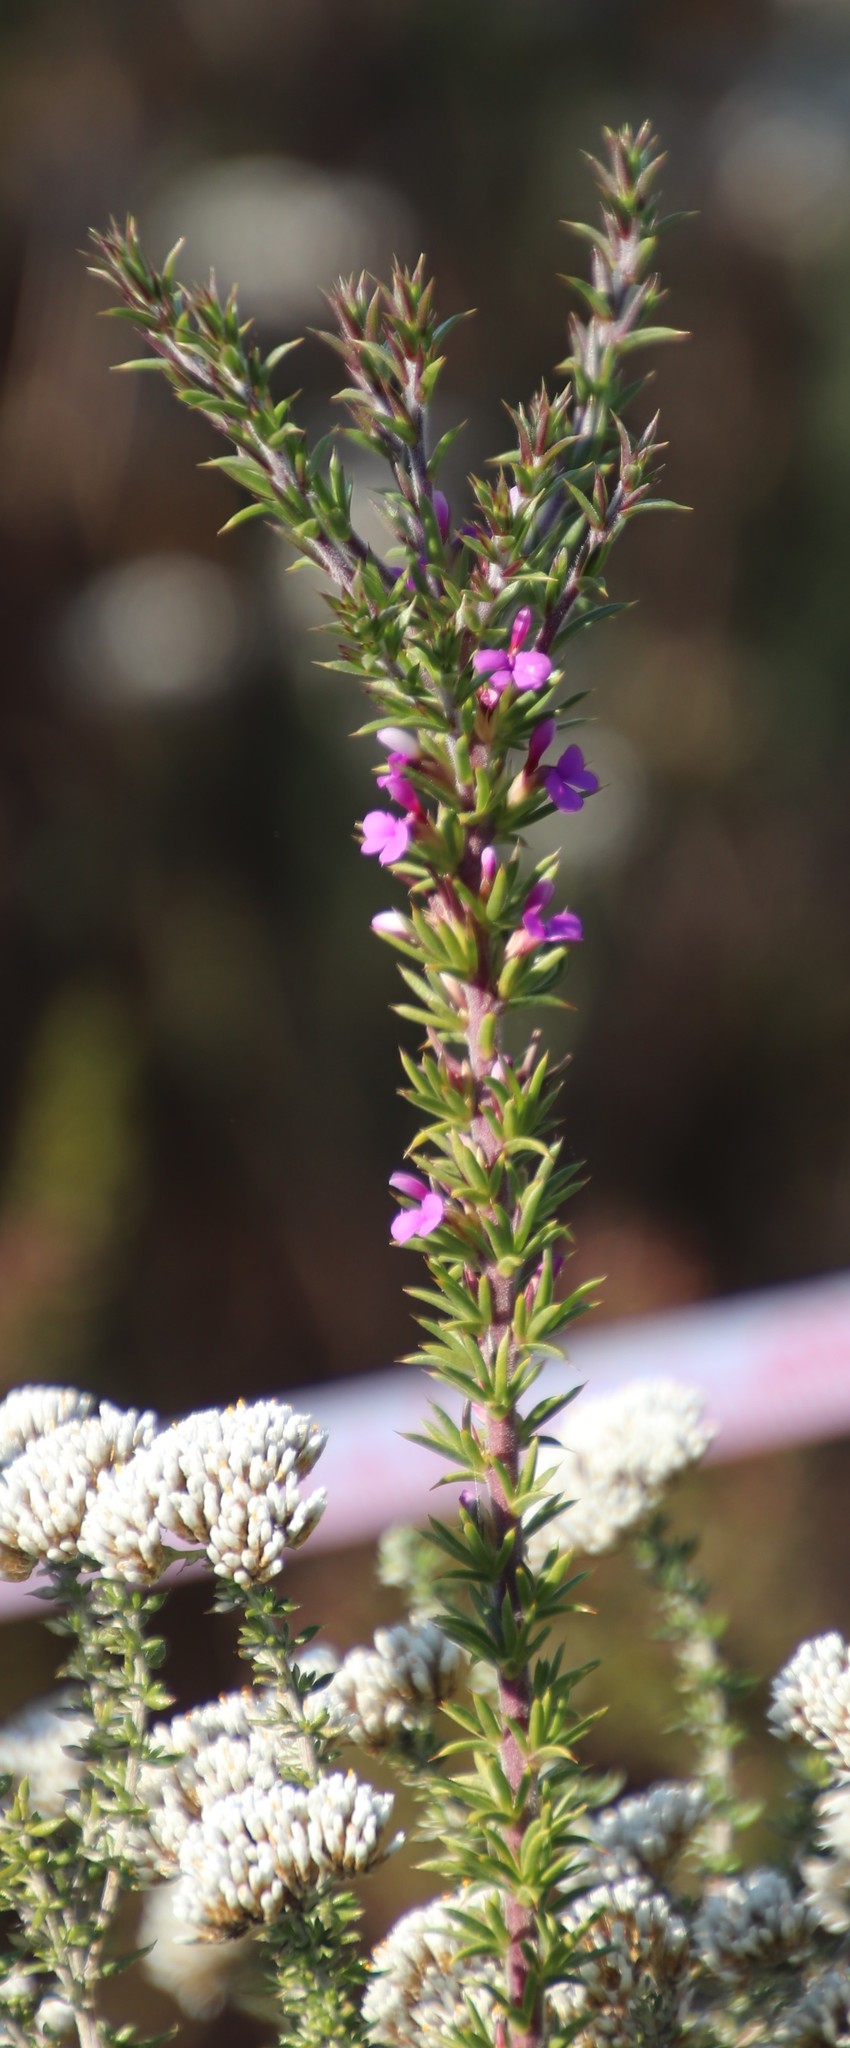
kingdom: Plantae
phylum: Tracheophyta
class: Magnoliopsida
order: Fabales
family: Polygalaceae
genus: Muraltia
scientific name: Muraltia heisteria
